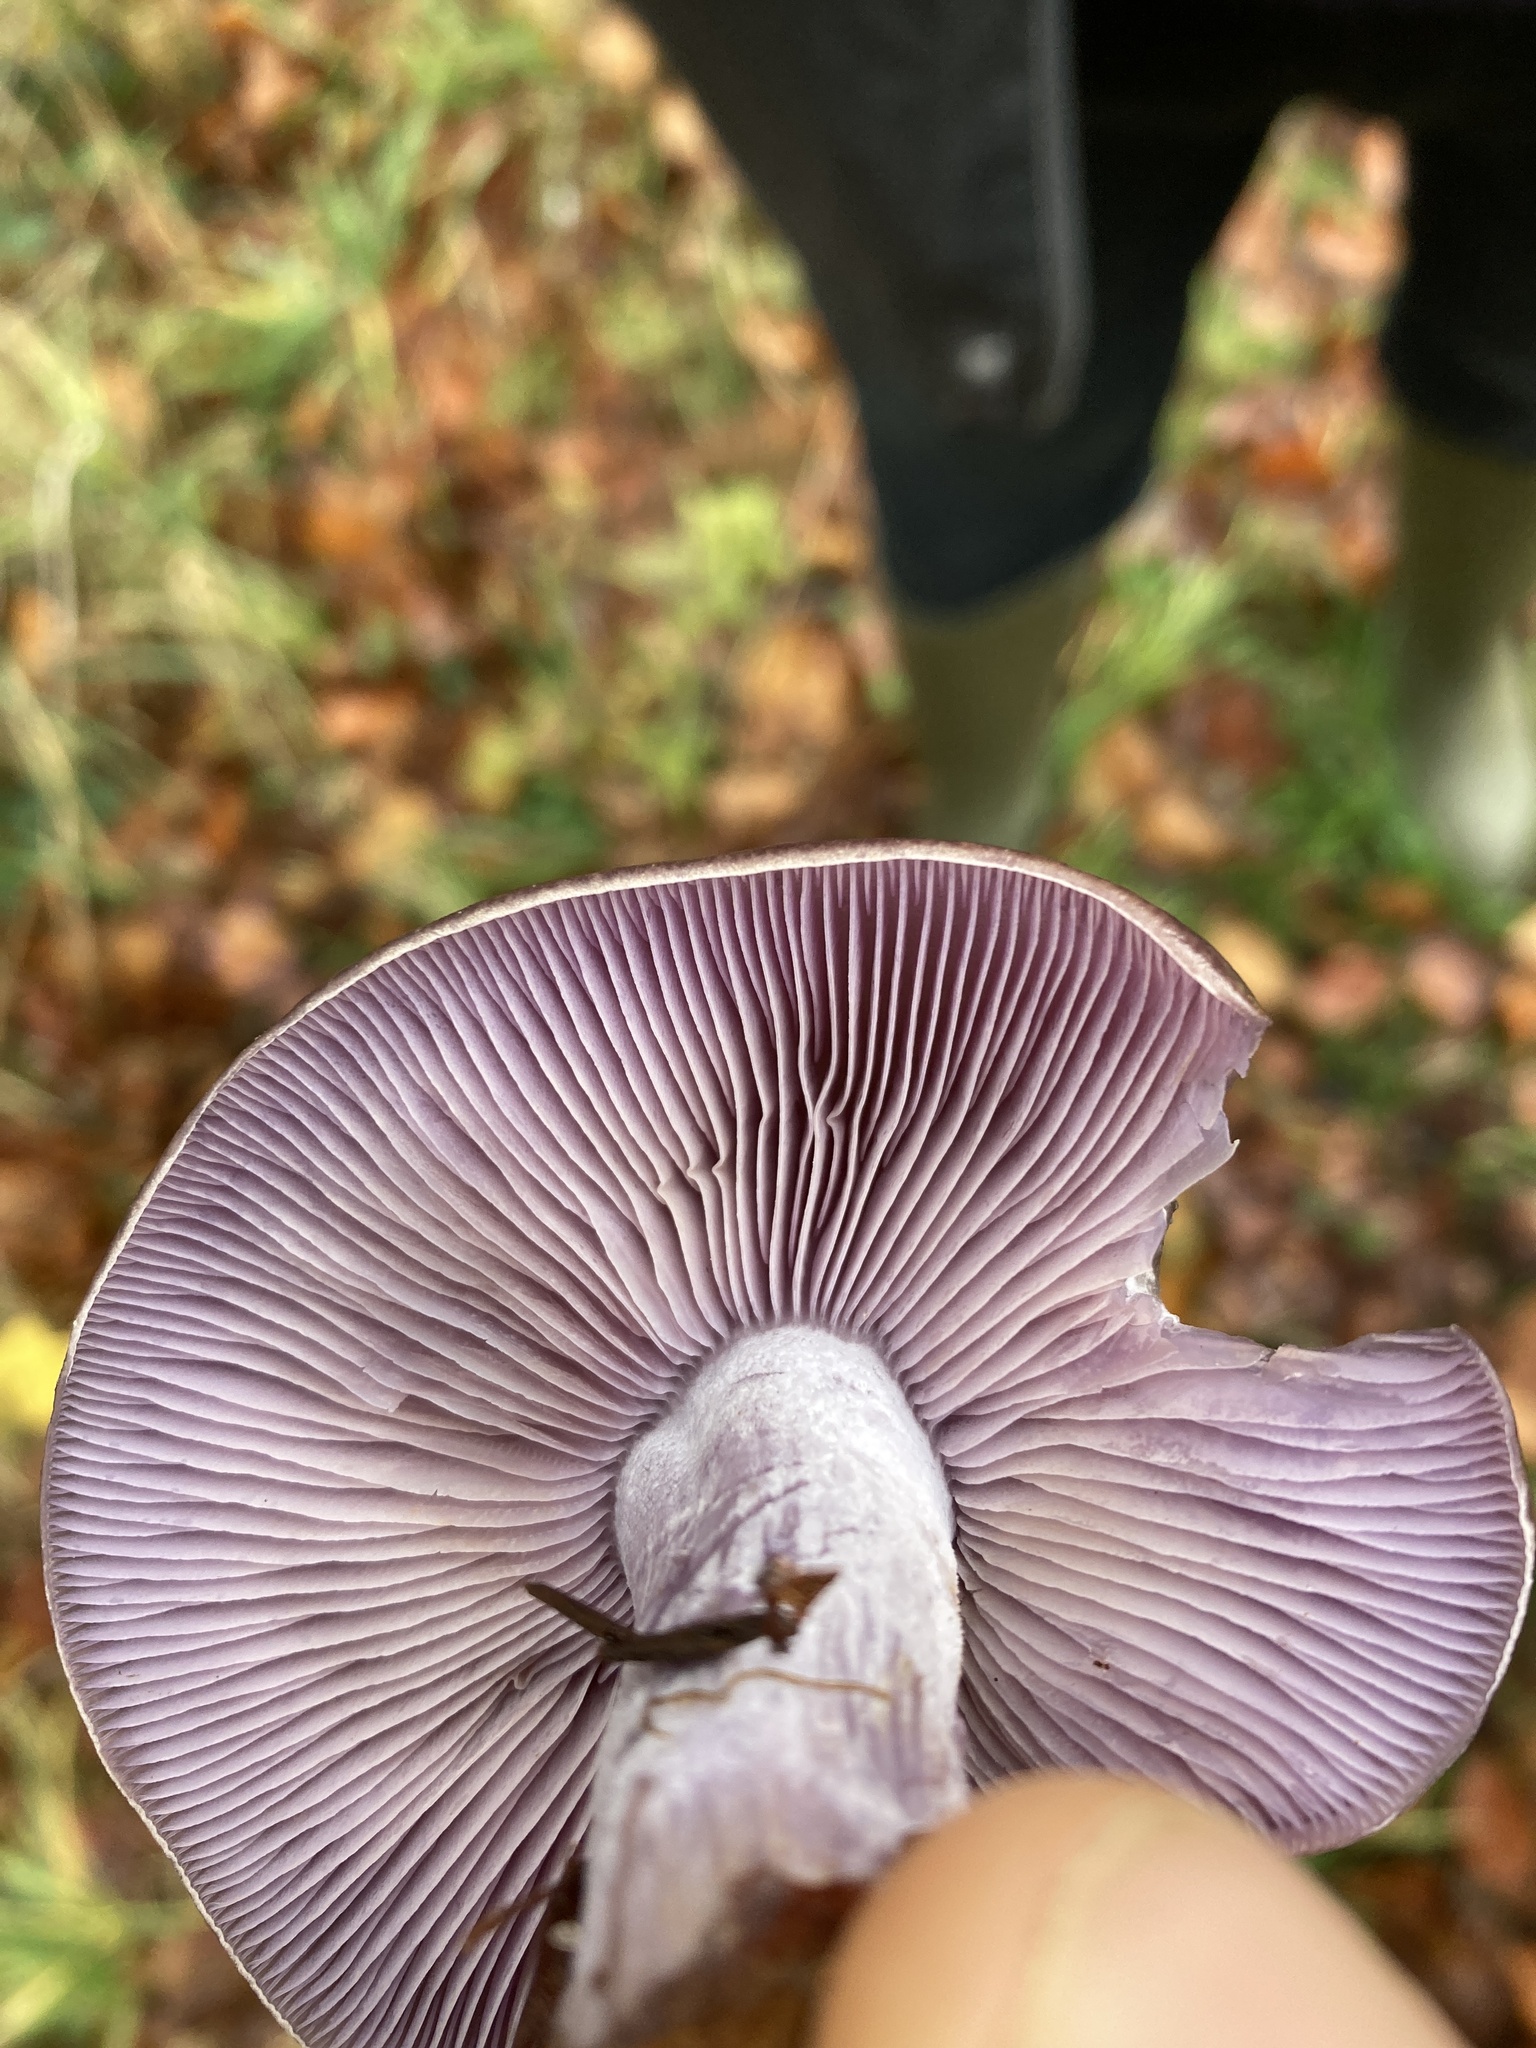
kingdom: Fungi
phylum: Basidiomycota
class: Agaricomycetes
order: Agaricales
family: Tricholomataceae
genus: Collybia
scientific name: Collybia
